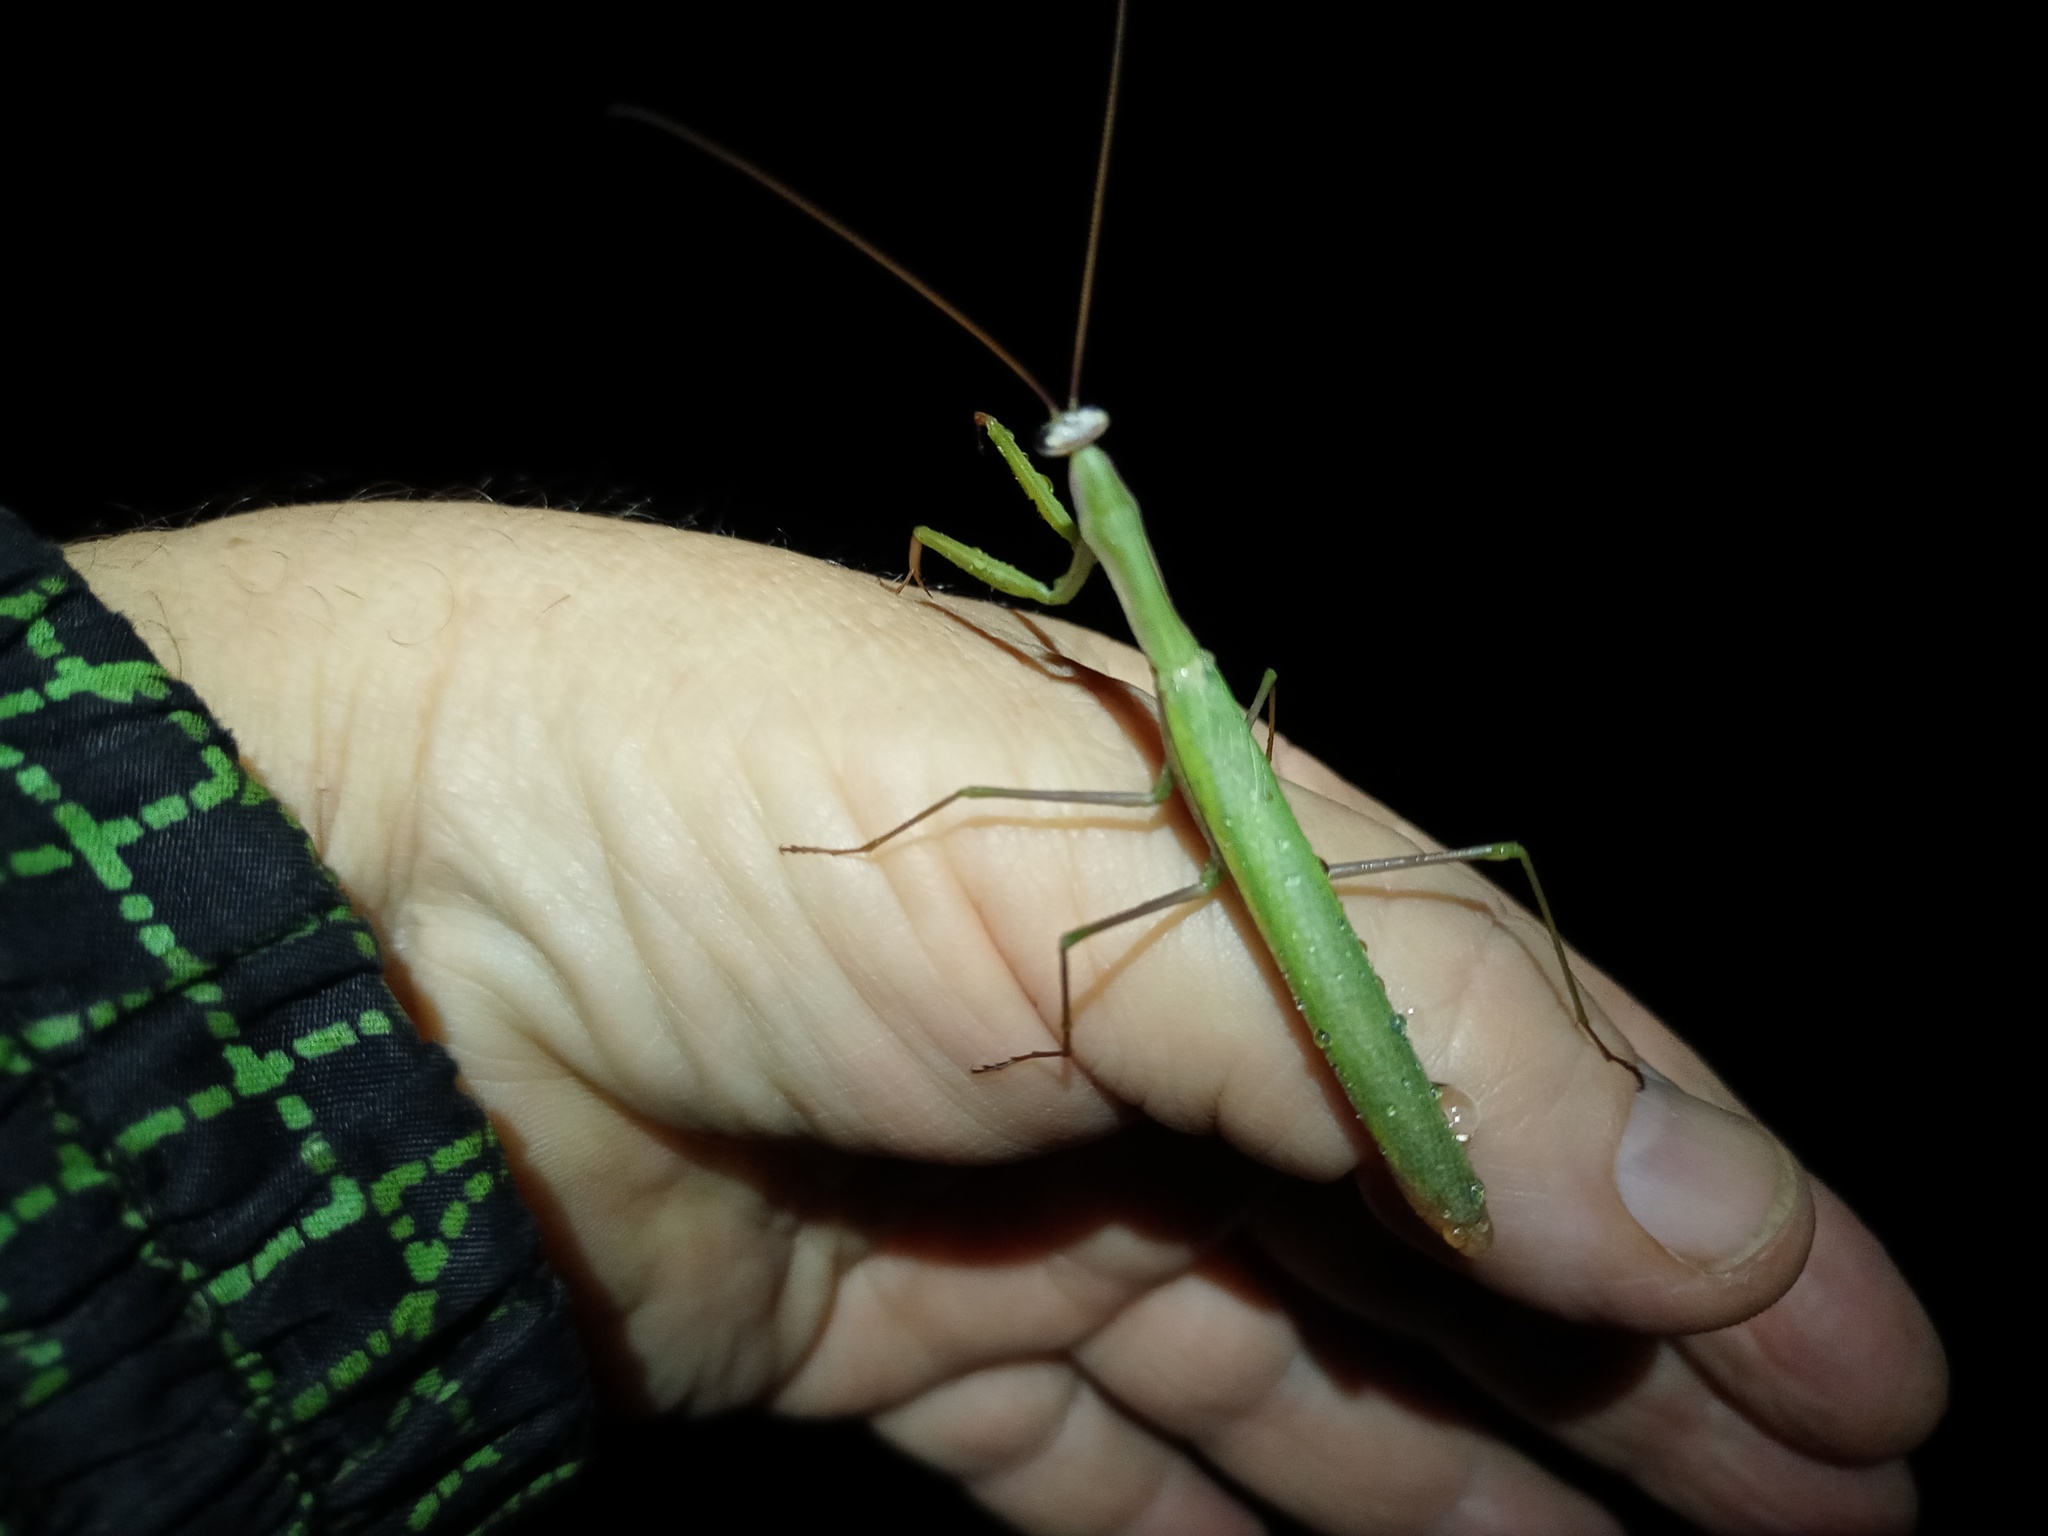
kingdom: Animalia
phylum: Arthropoda
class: Insecta
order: Mantodea
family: Mantidae
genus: Mantis
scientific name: Mantis religiosa
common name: Praying mantis
